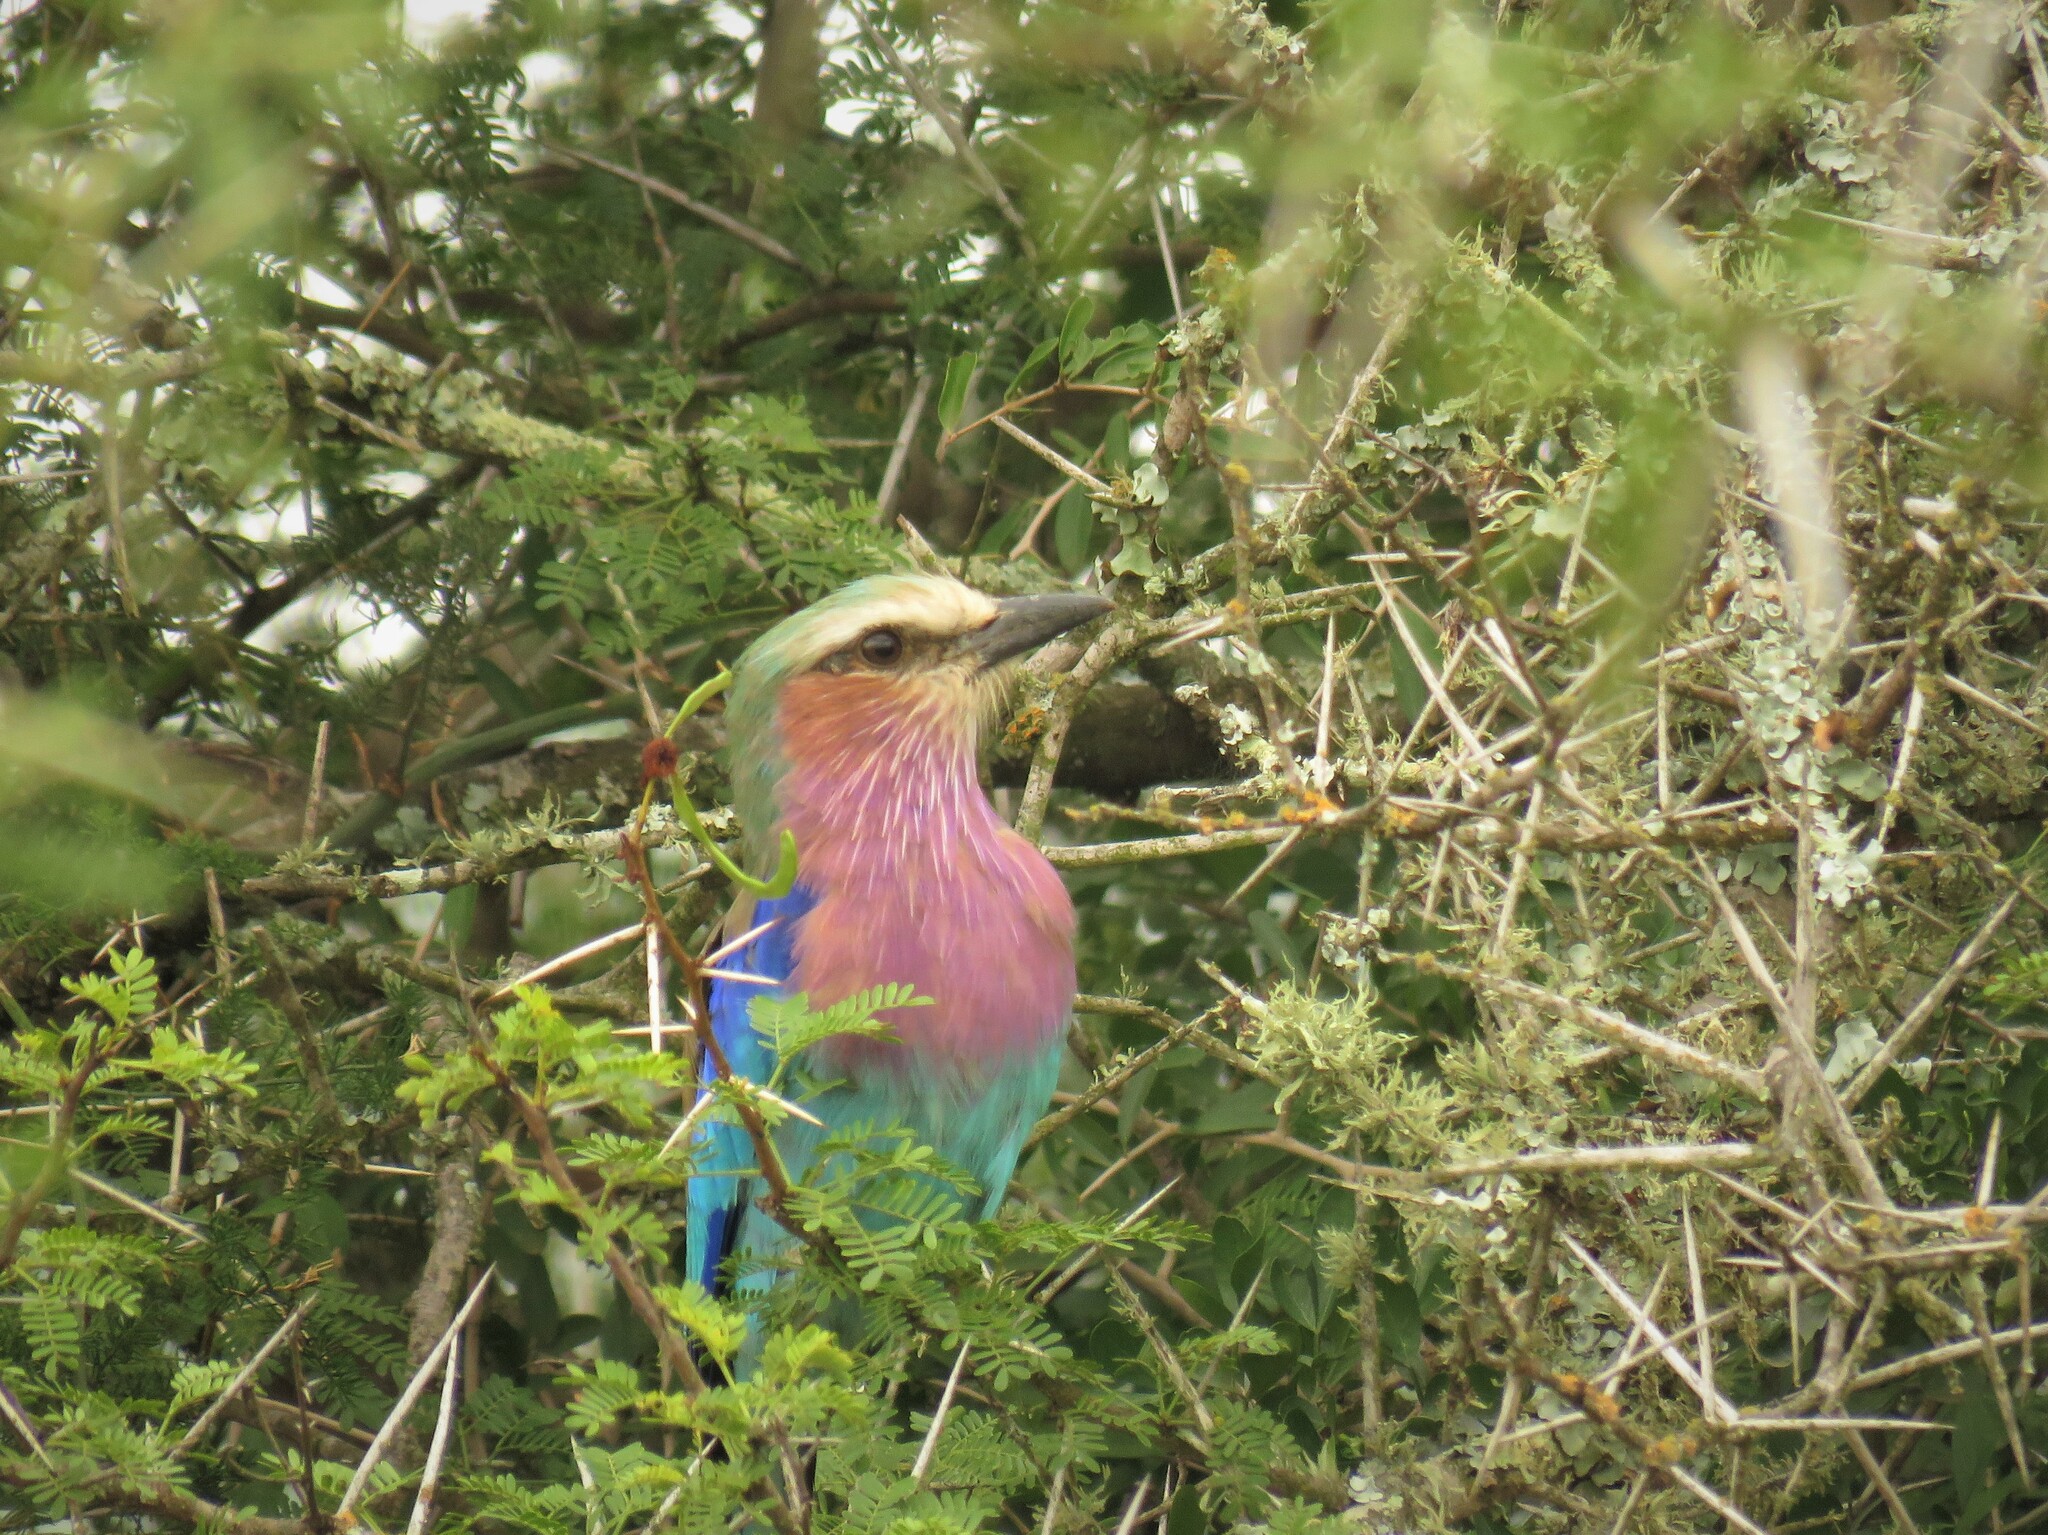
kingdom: Animalia
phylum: Chordata
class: Aves
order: Coraciiformes
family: Coraciidae
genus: Coracias
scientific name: Coracias caudatus
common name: Lilac-breasted roller
